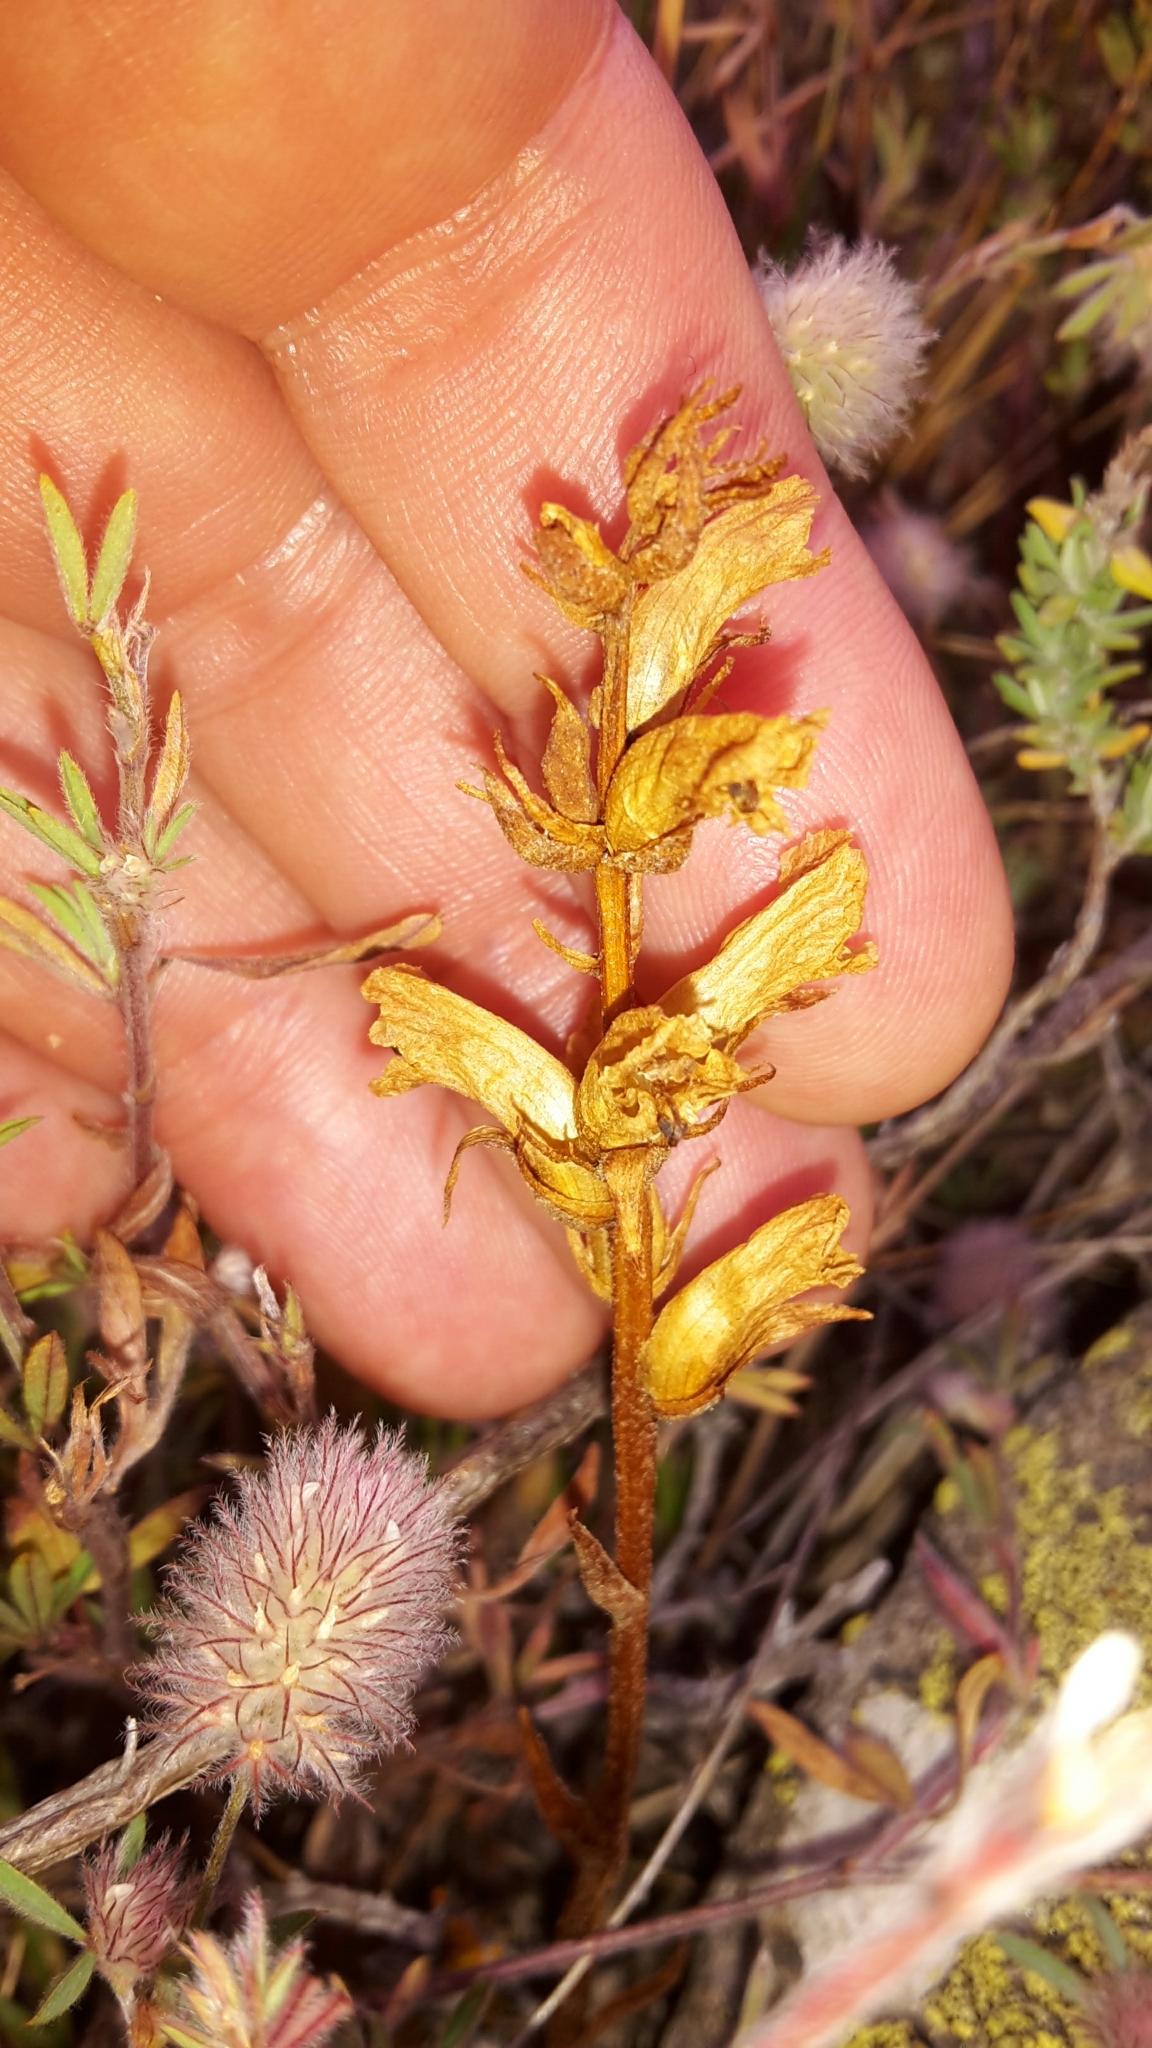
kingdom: Plantae
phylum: Tracheophyta
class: Magnoliopsida
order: Lamiales
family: Orobanchaceae
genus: Orobanche
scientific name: Orobanche minor
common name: Common broomrape
